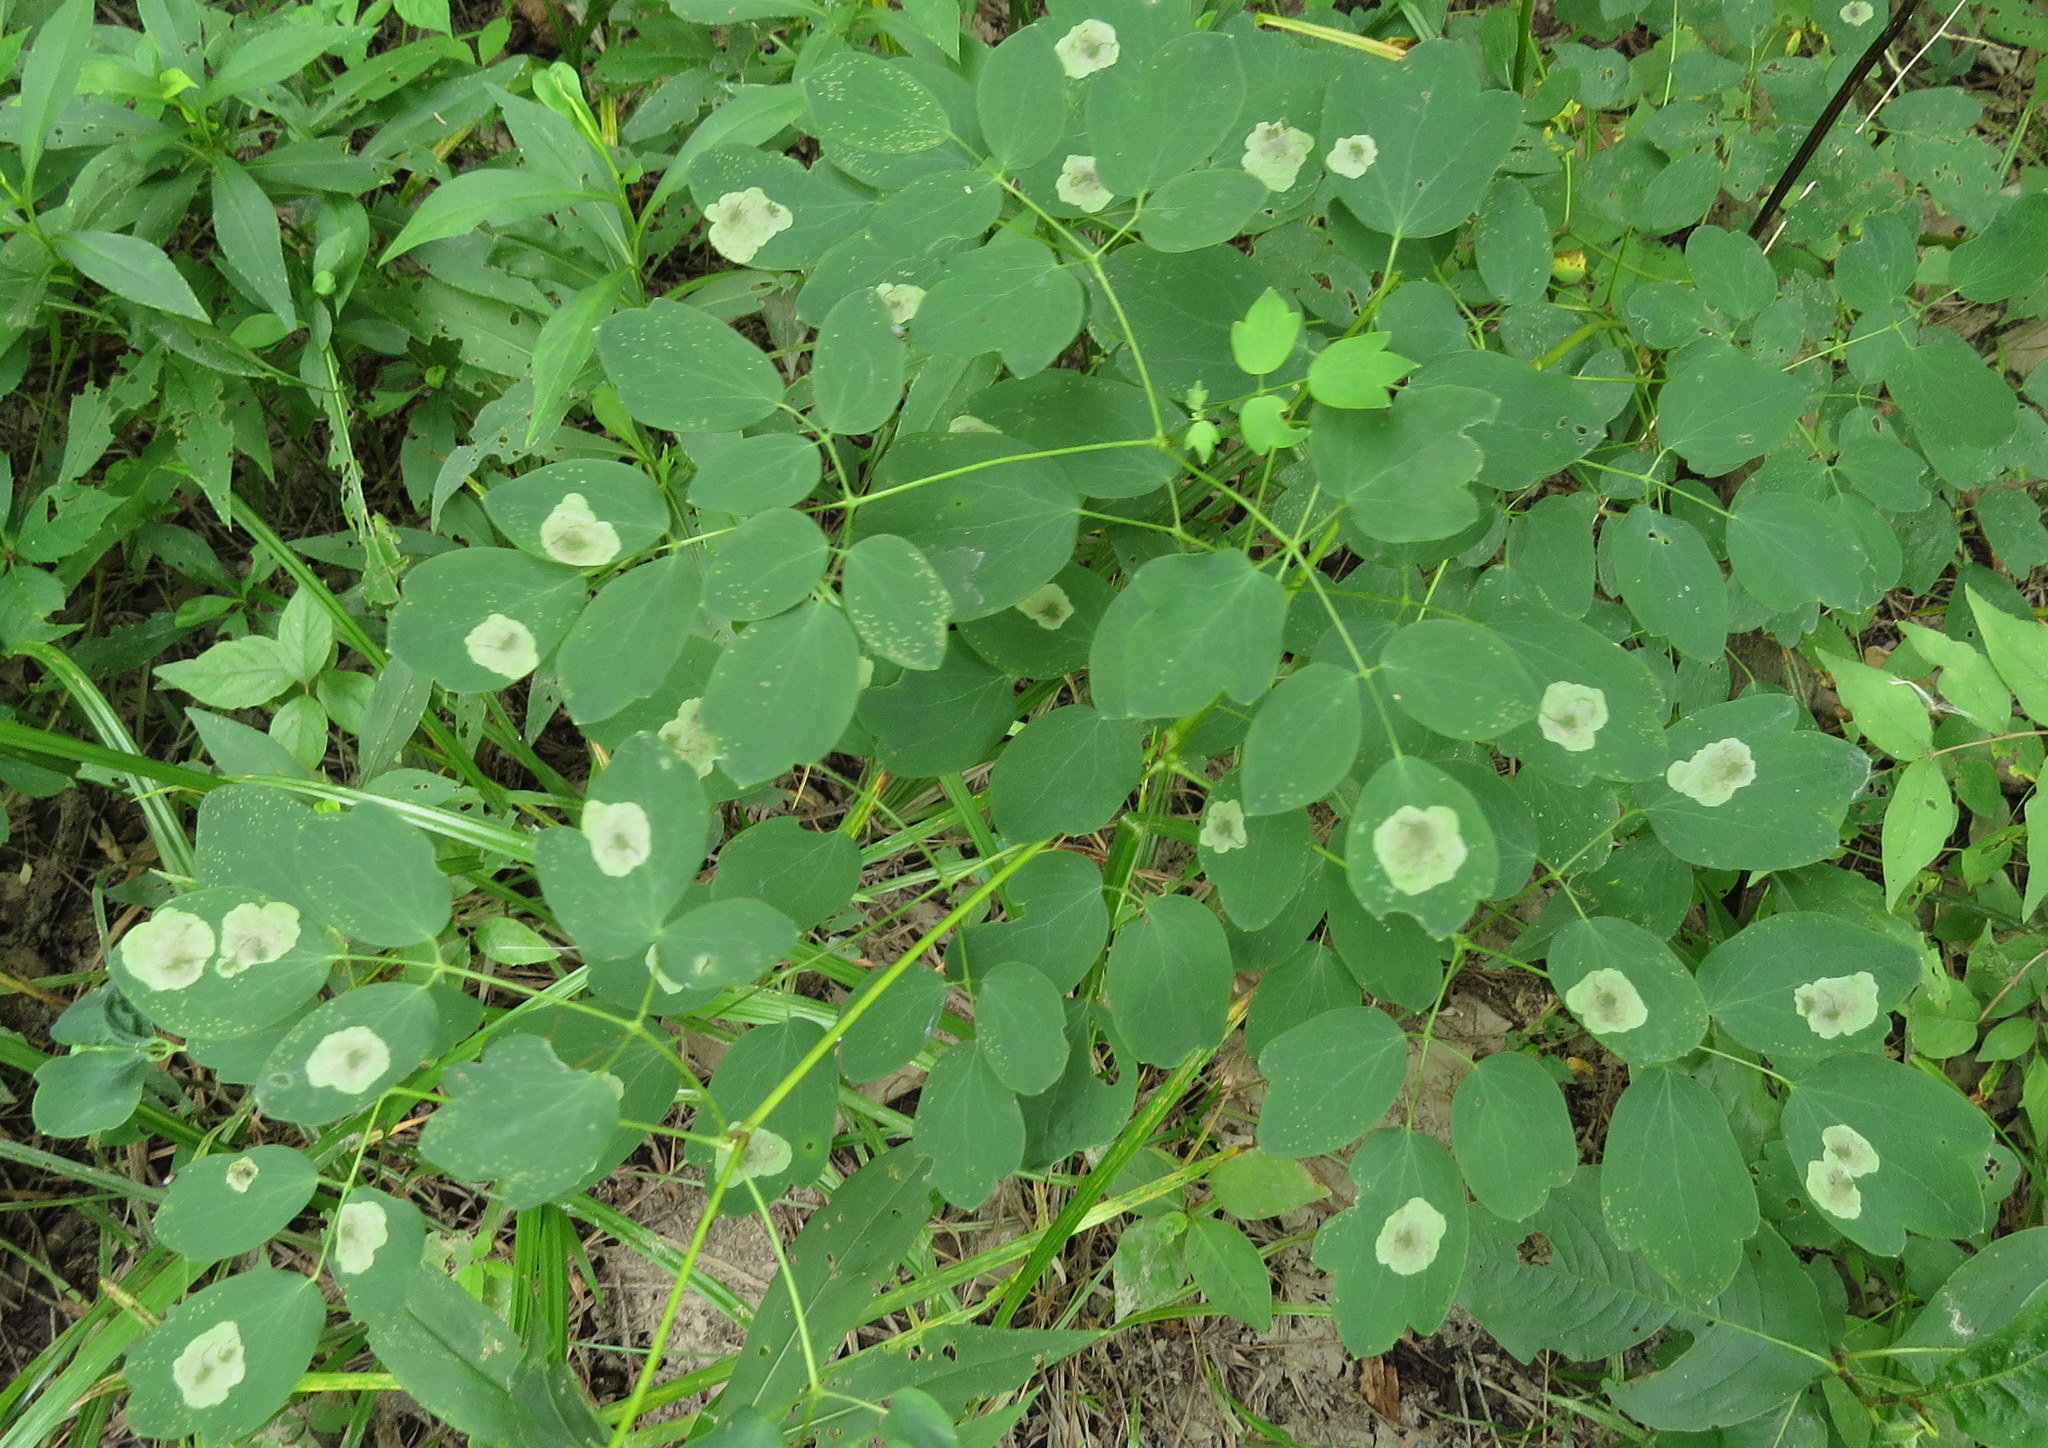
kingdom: Animalia
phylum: Arthropoda
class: Insecta
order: Diptera
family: Agromyzidae
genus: Phytomyza
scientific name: Phytomyza plumiseta
